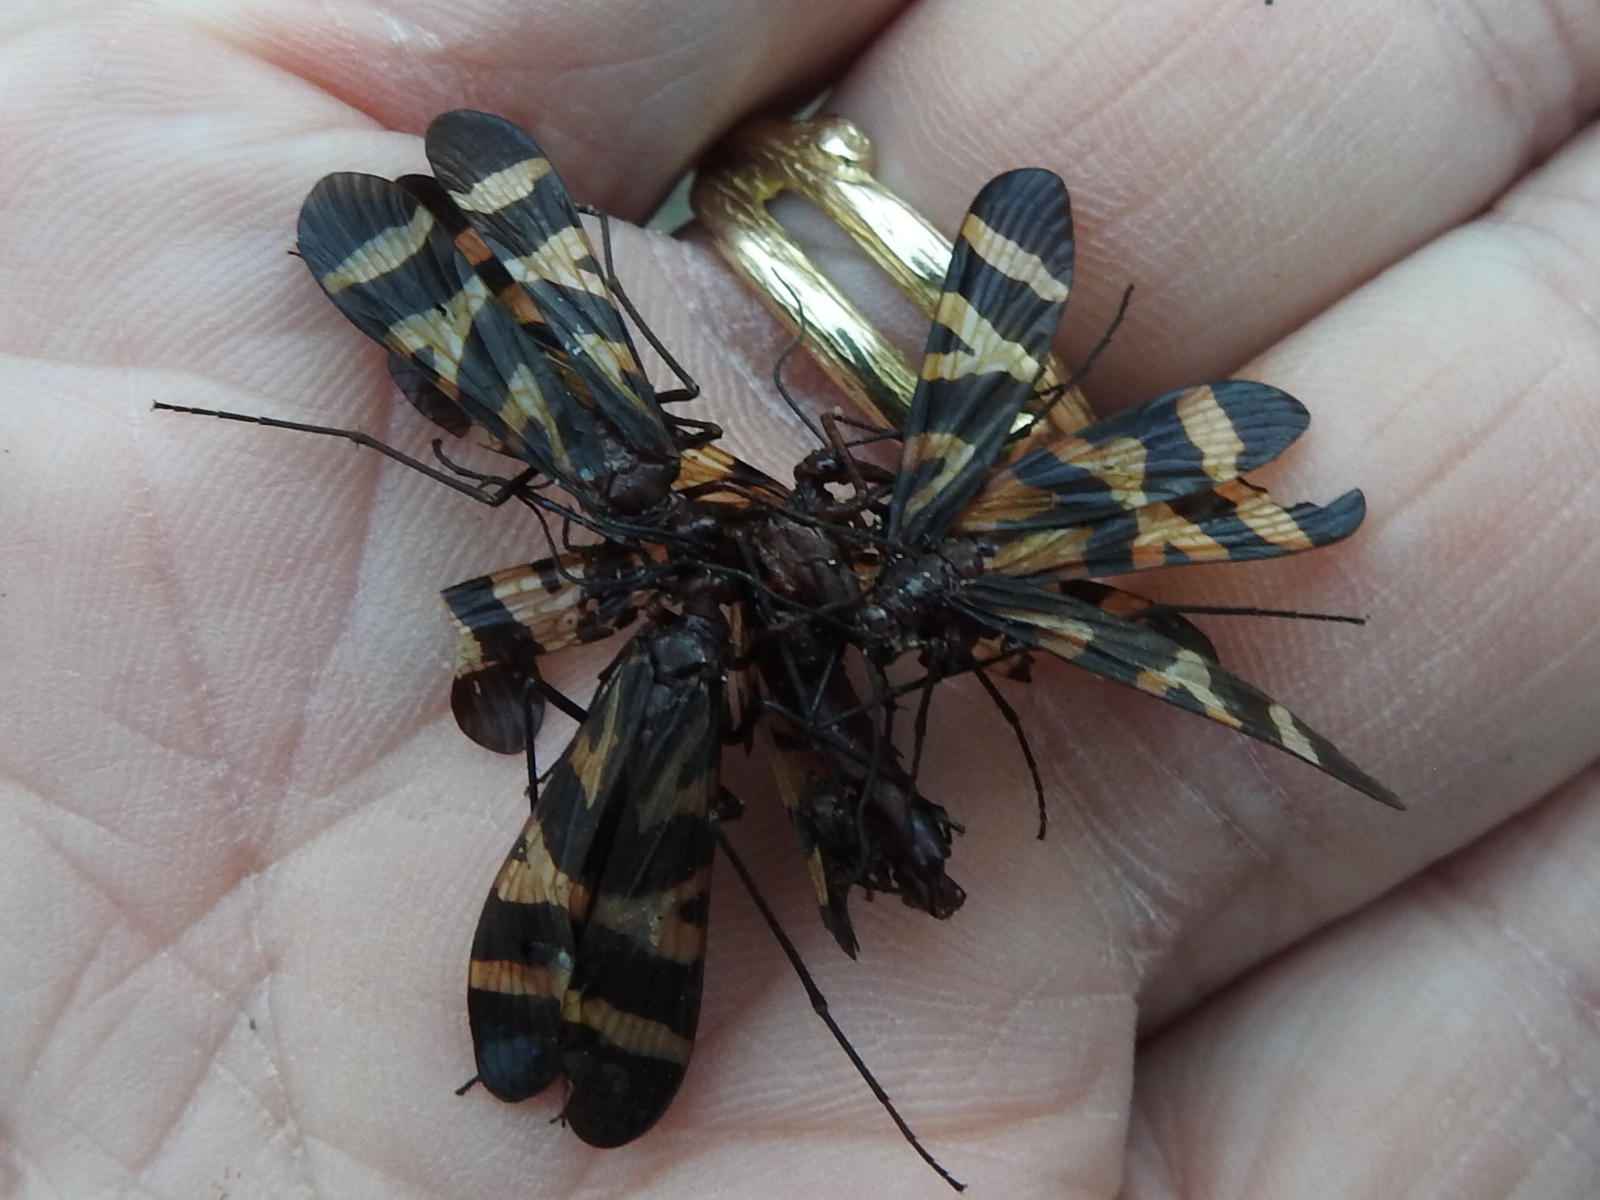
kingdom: Animalia
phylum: Arthropoda
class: Insecta
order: Mecoptera
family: Panorpidae
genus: Panorpa
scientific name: Panorpa nuptialis
